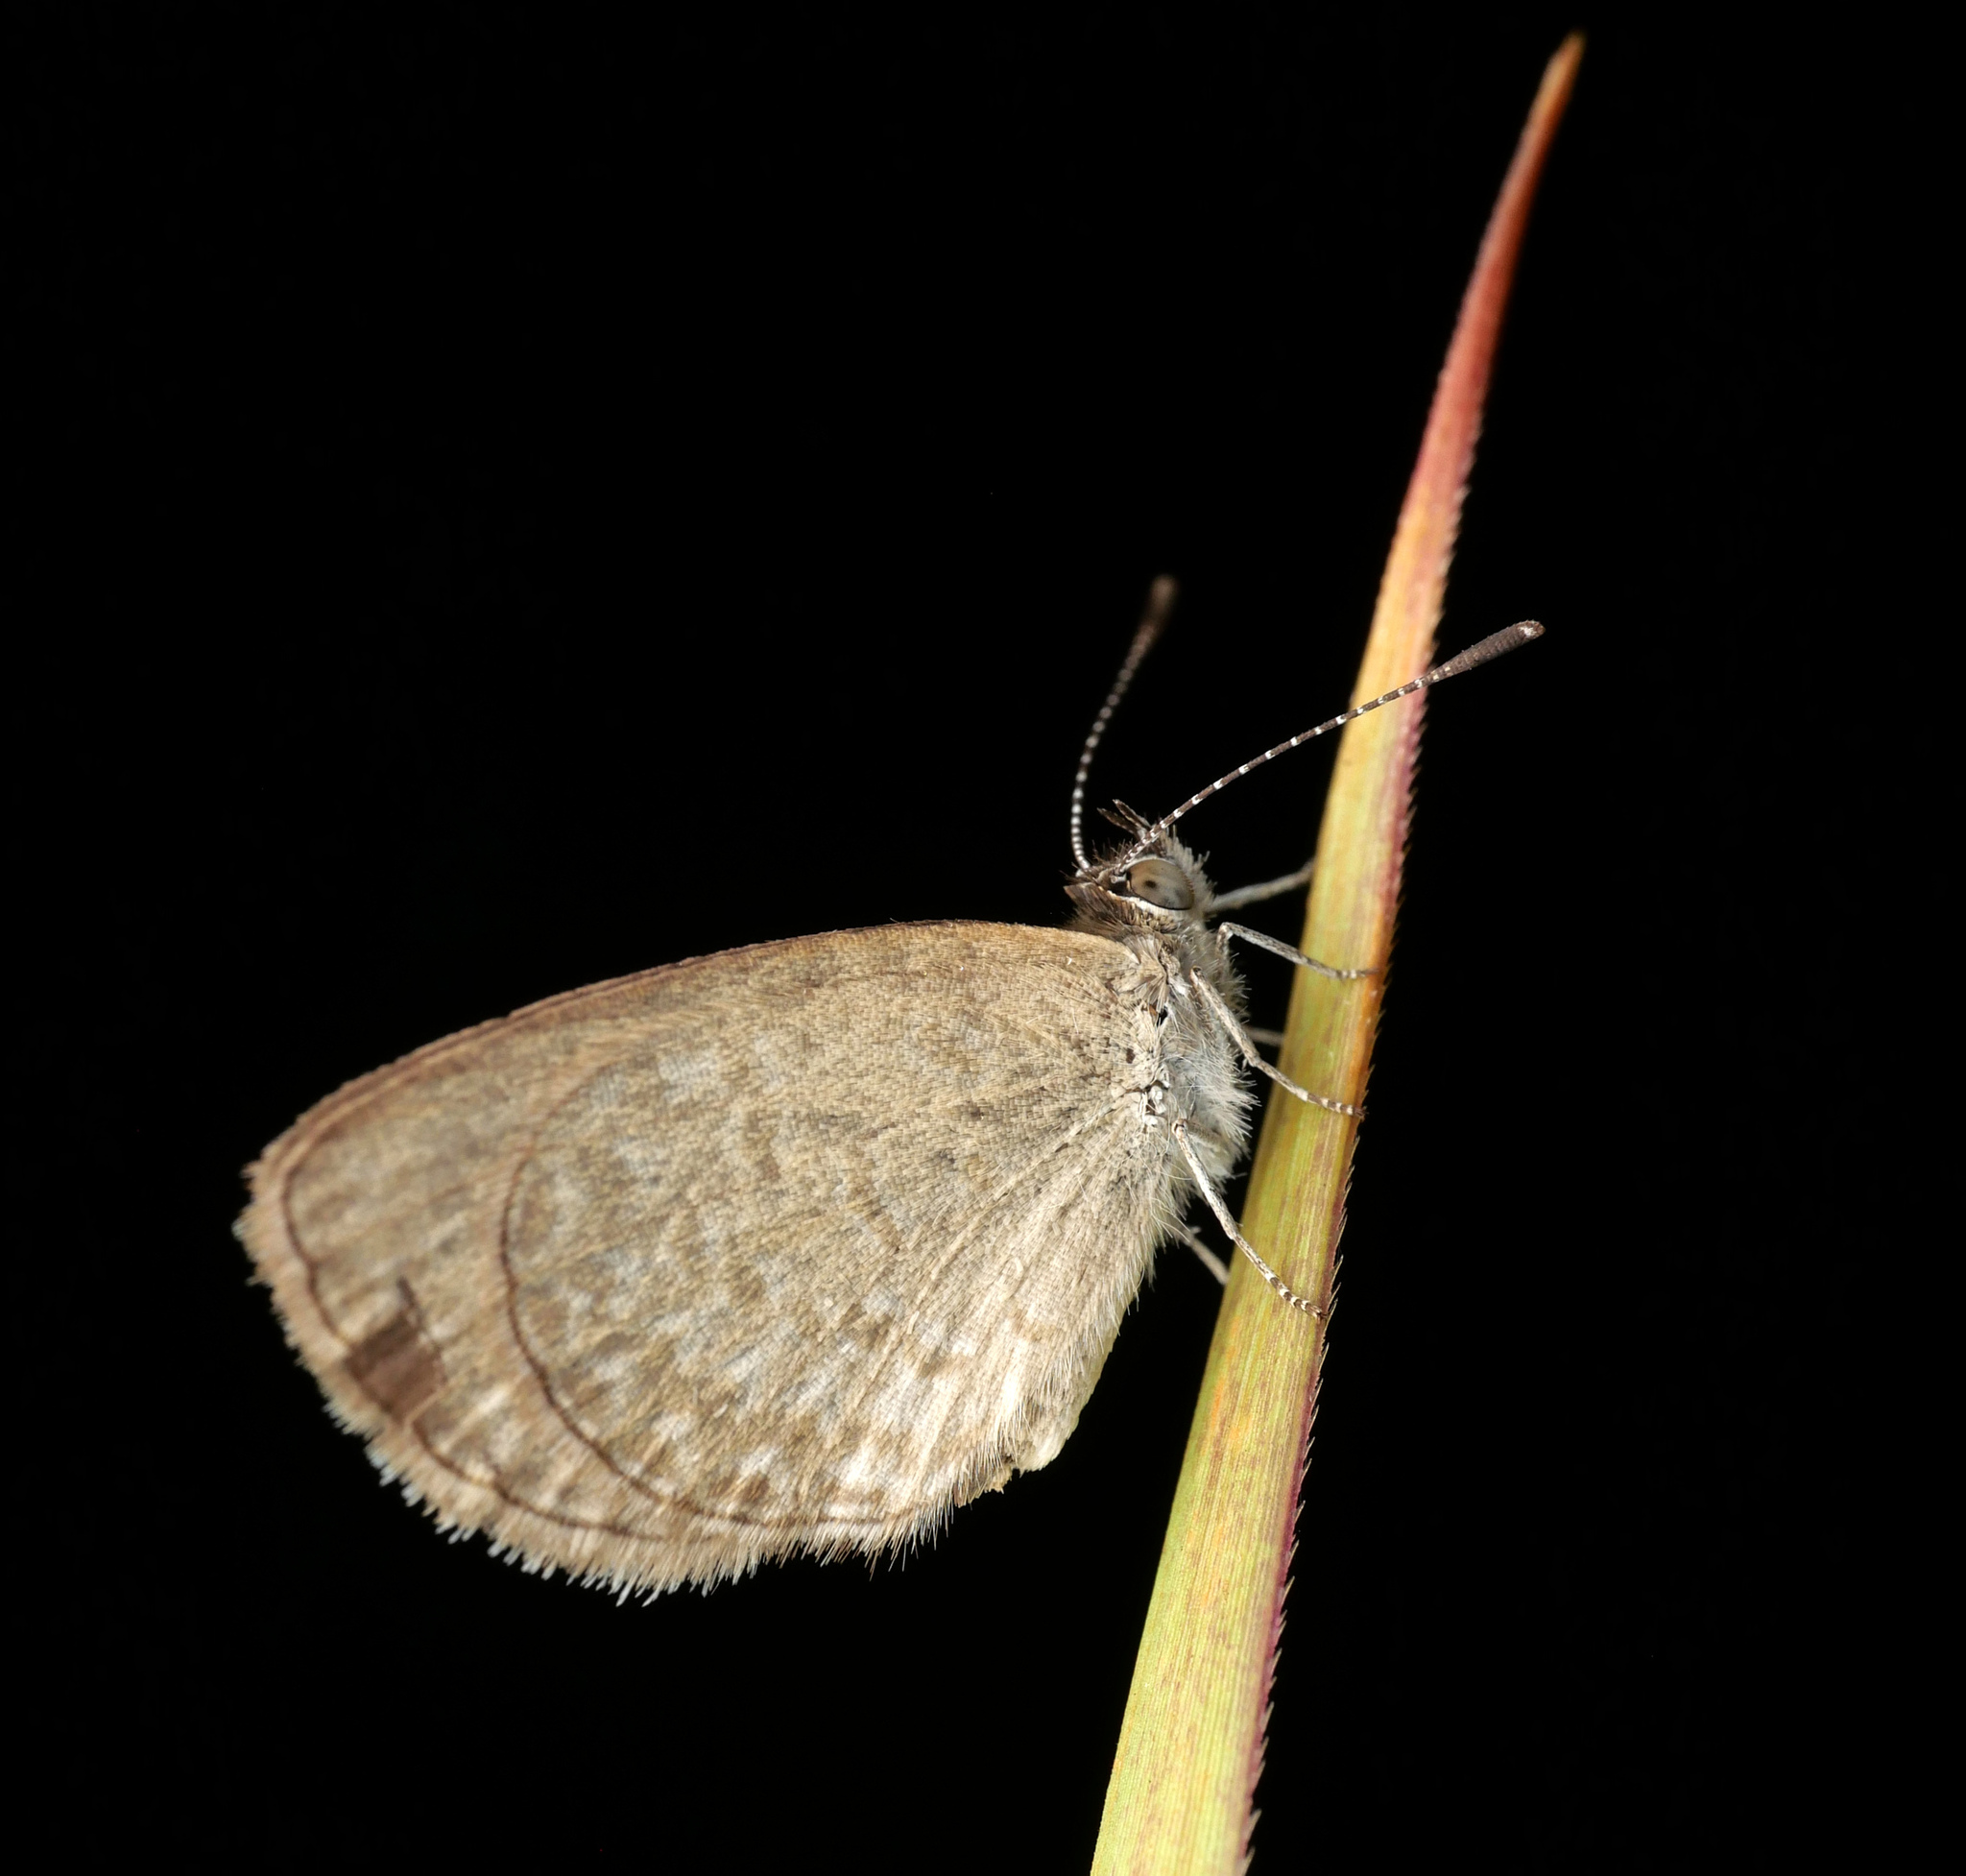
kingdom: Animalia
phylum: Arthropoda
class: Insecta
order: Lepidoptera
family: Lycaenidae
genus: Zizina
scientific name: Zizina labradus
